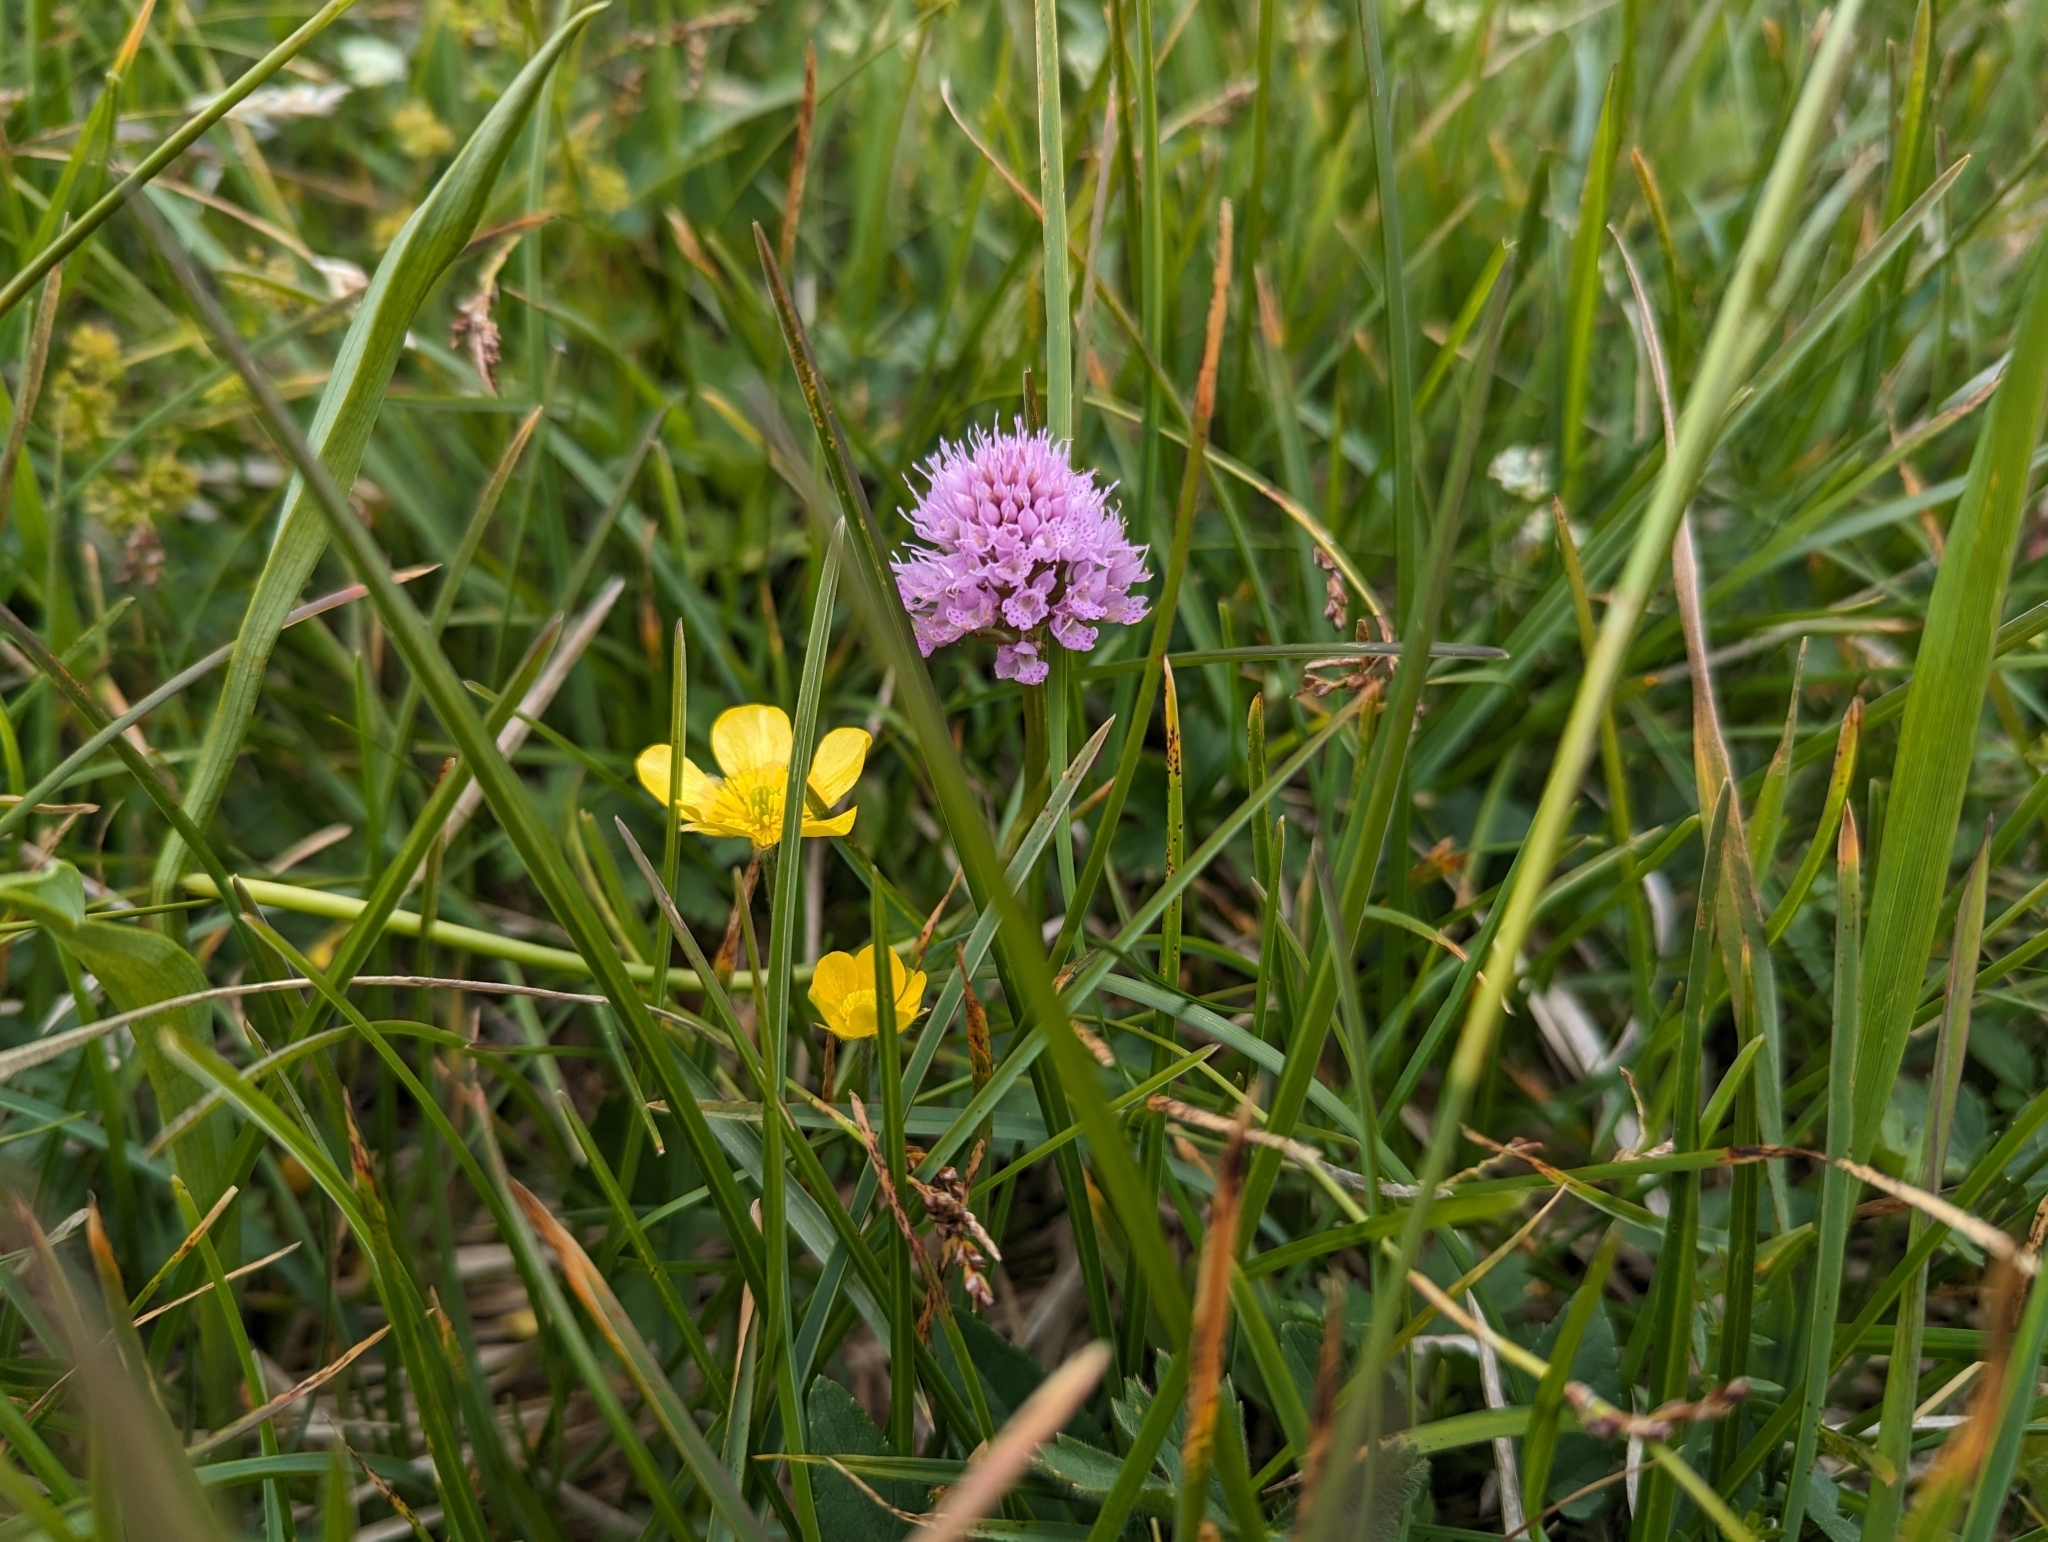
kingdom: Plantae
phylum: Tracheophyta
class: Liliopsida
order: Asparagales
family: Orchidaceae
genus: Traunsteinera
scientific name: Traunsteinera globosa
